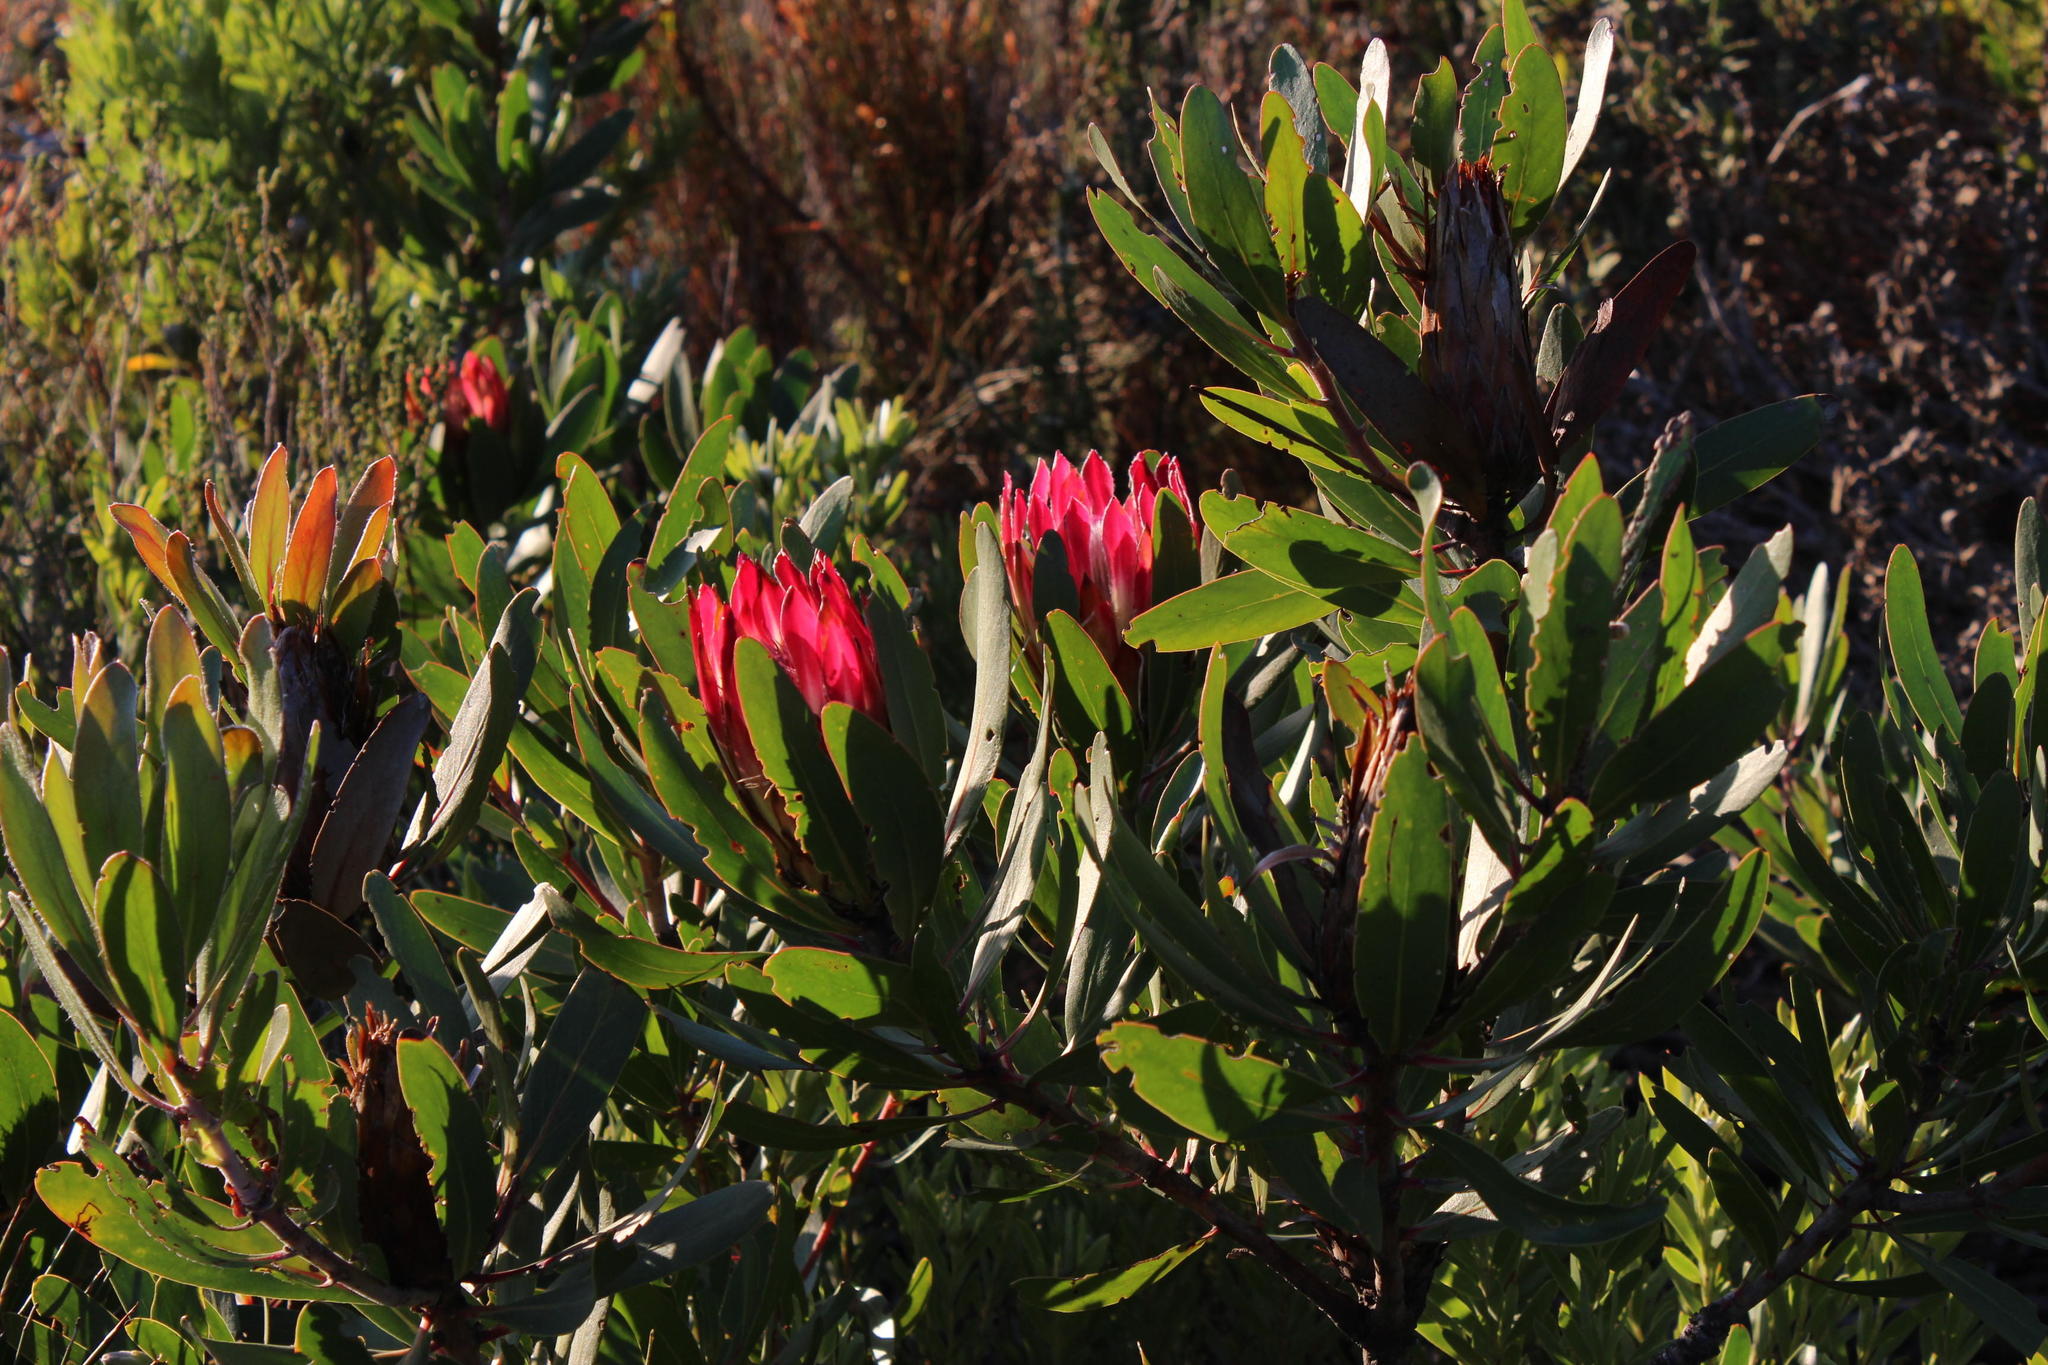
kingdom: Plantae
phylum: Tracheophyta
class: Magnoliopsida
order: Proteales
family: Proteaceae
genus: Protea
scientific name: Protea obtusifolia
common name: Bredasdorp sugarbush
